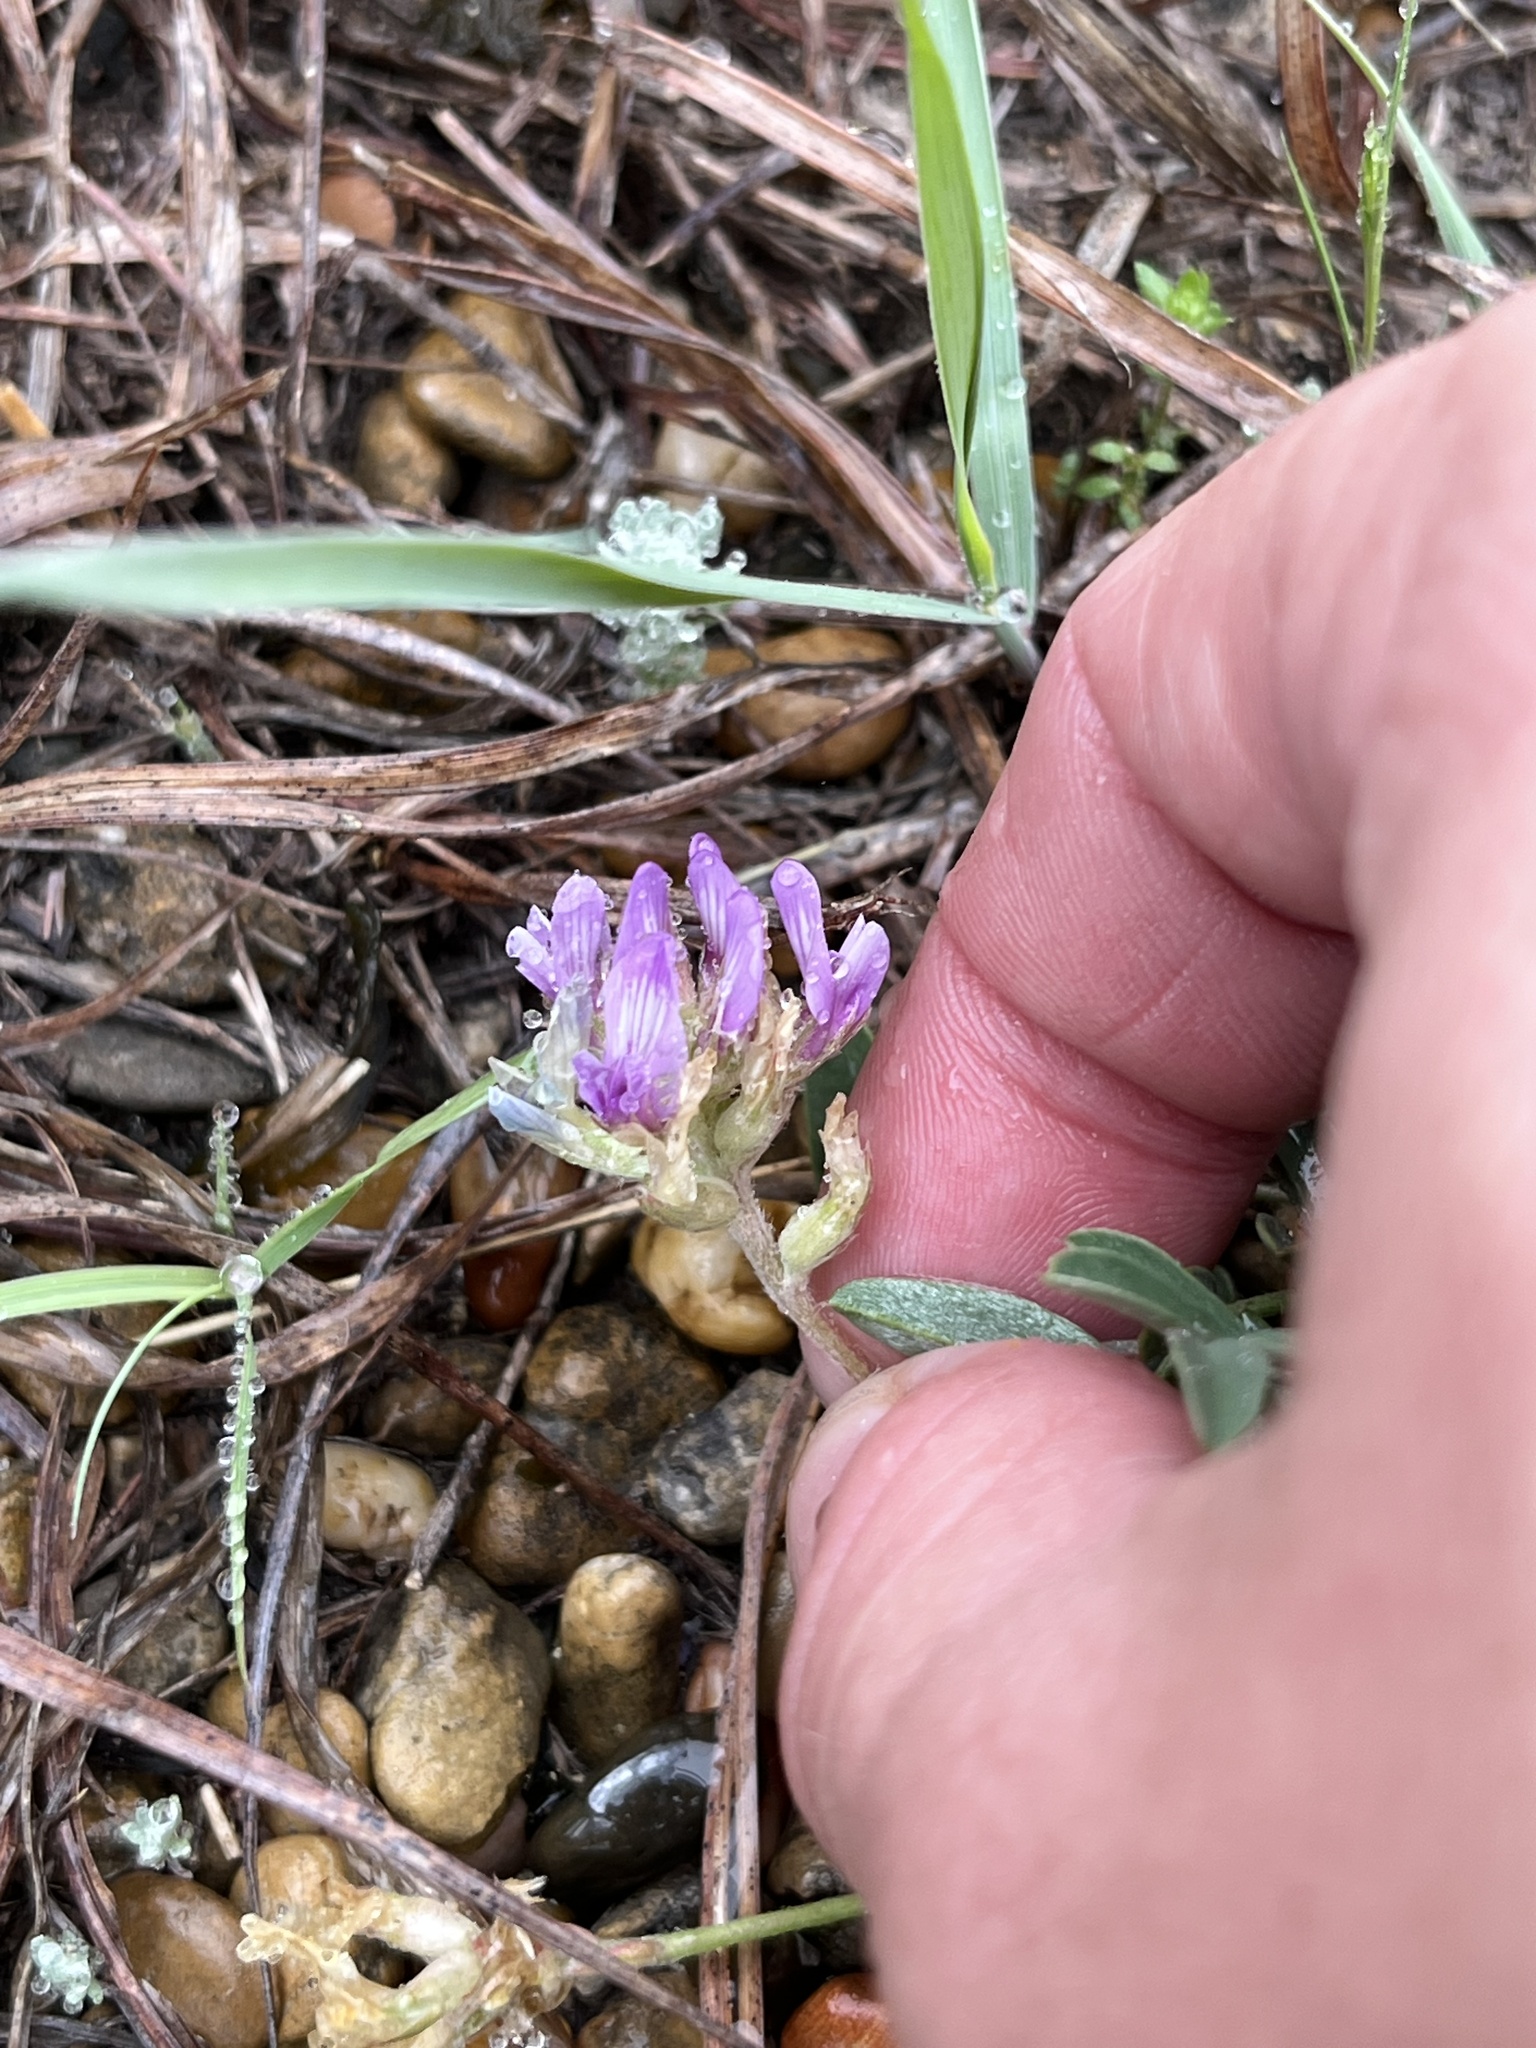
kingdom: Plantae
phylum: Tracheophyta
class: Magnoliopsida
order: Fabales
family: Fabaceae
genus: Astragalus
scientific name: Astragalus lotiflorus
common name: Lotus milk-vetch
